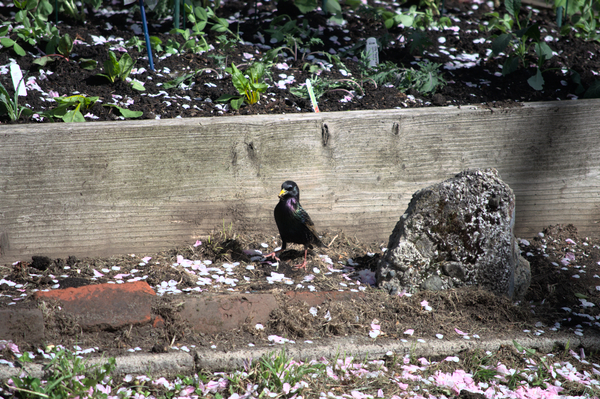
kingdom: Animalia
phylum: Chordata
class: Aves
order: Passeriformes
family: Sturnidae
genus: Sturnus
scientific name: Sturnus vulgaris
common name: Common starling
